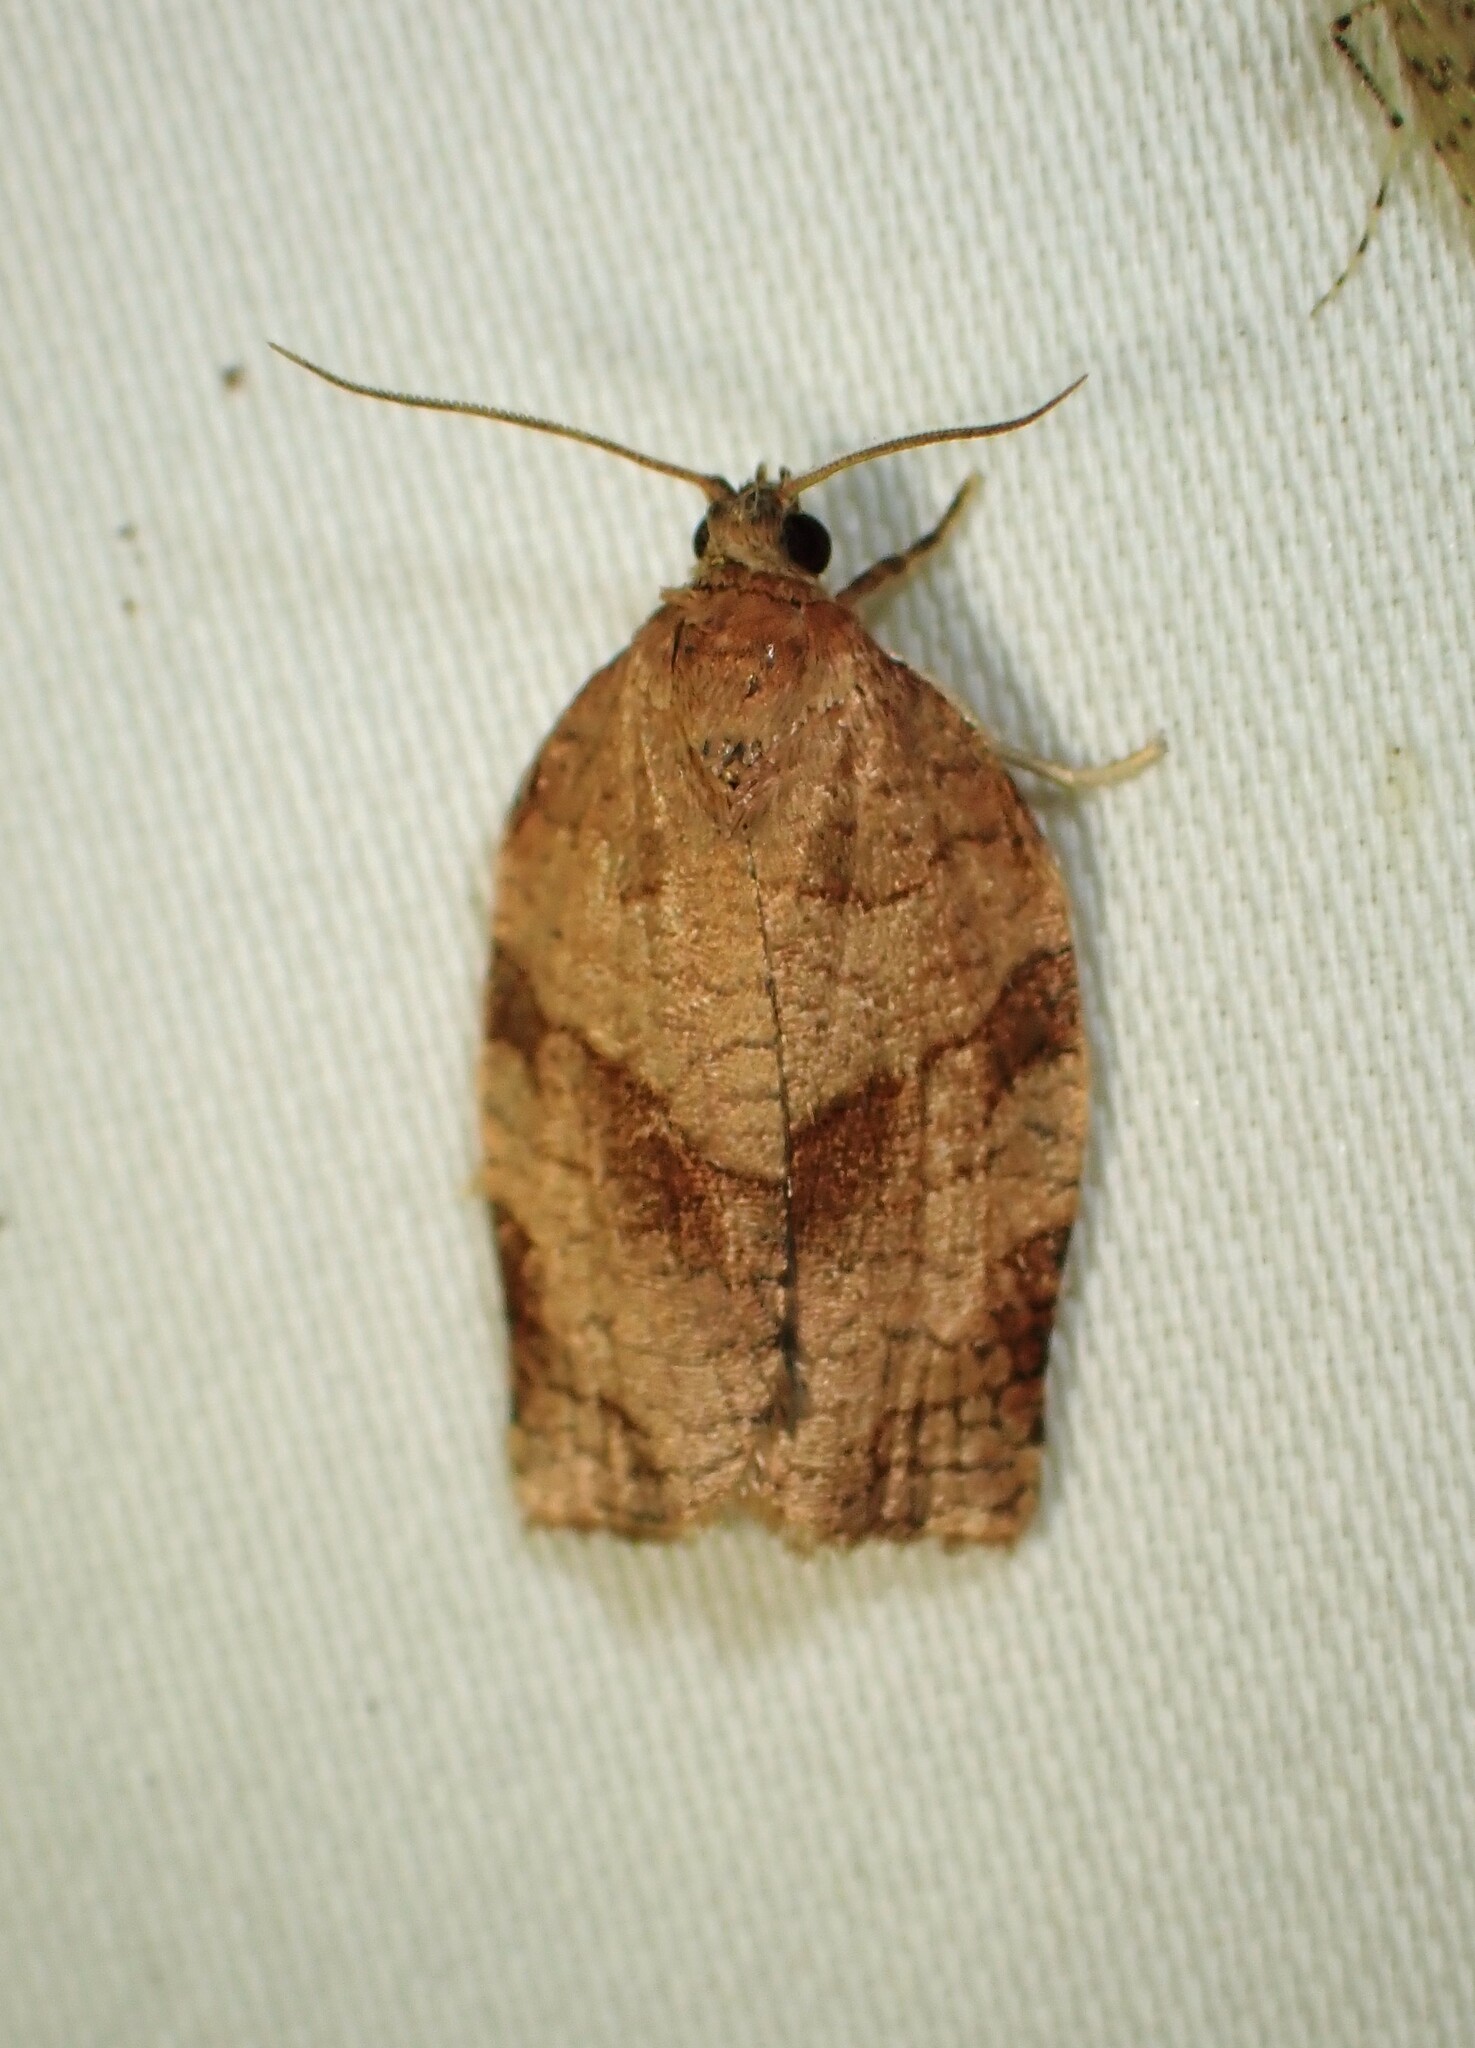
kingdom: Animalia
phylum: Arthropoda
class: Insecta
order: Lepidoptera
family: Tortricidae
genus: Choristoneura
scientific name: Choristoneura rosaceana
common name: Oblique-banded leafroller moth
